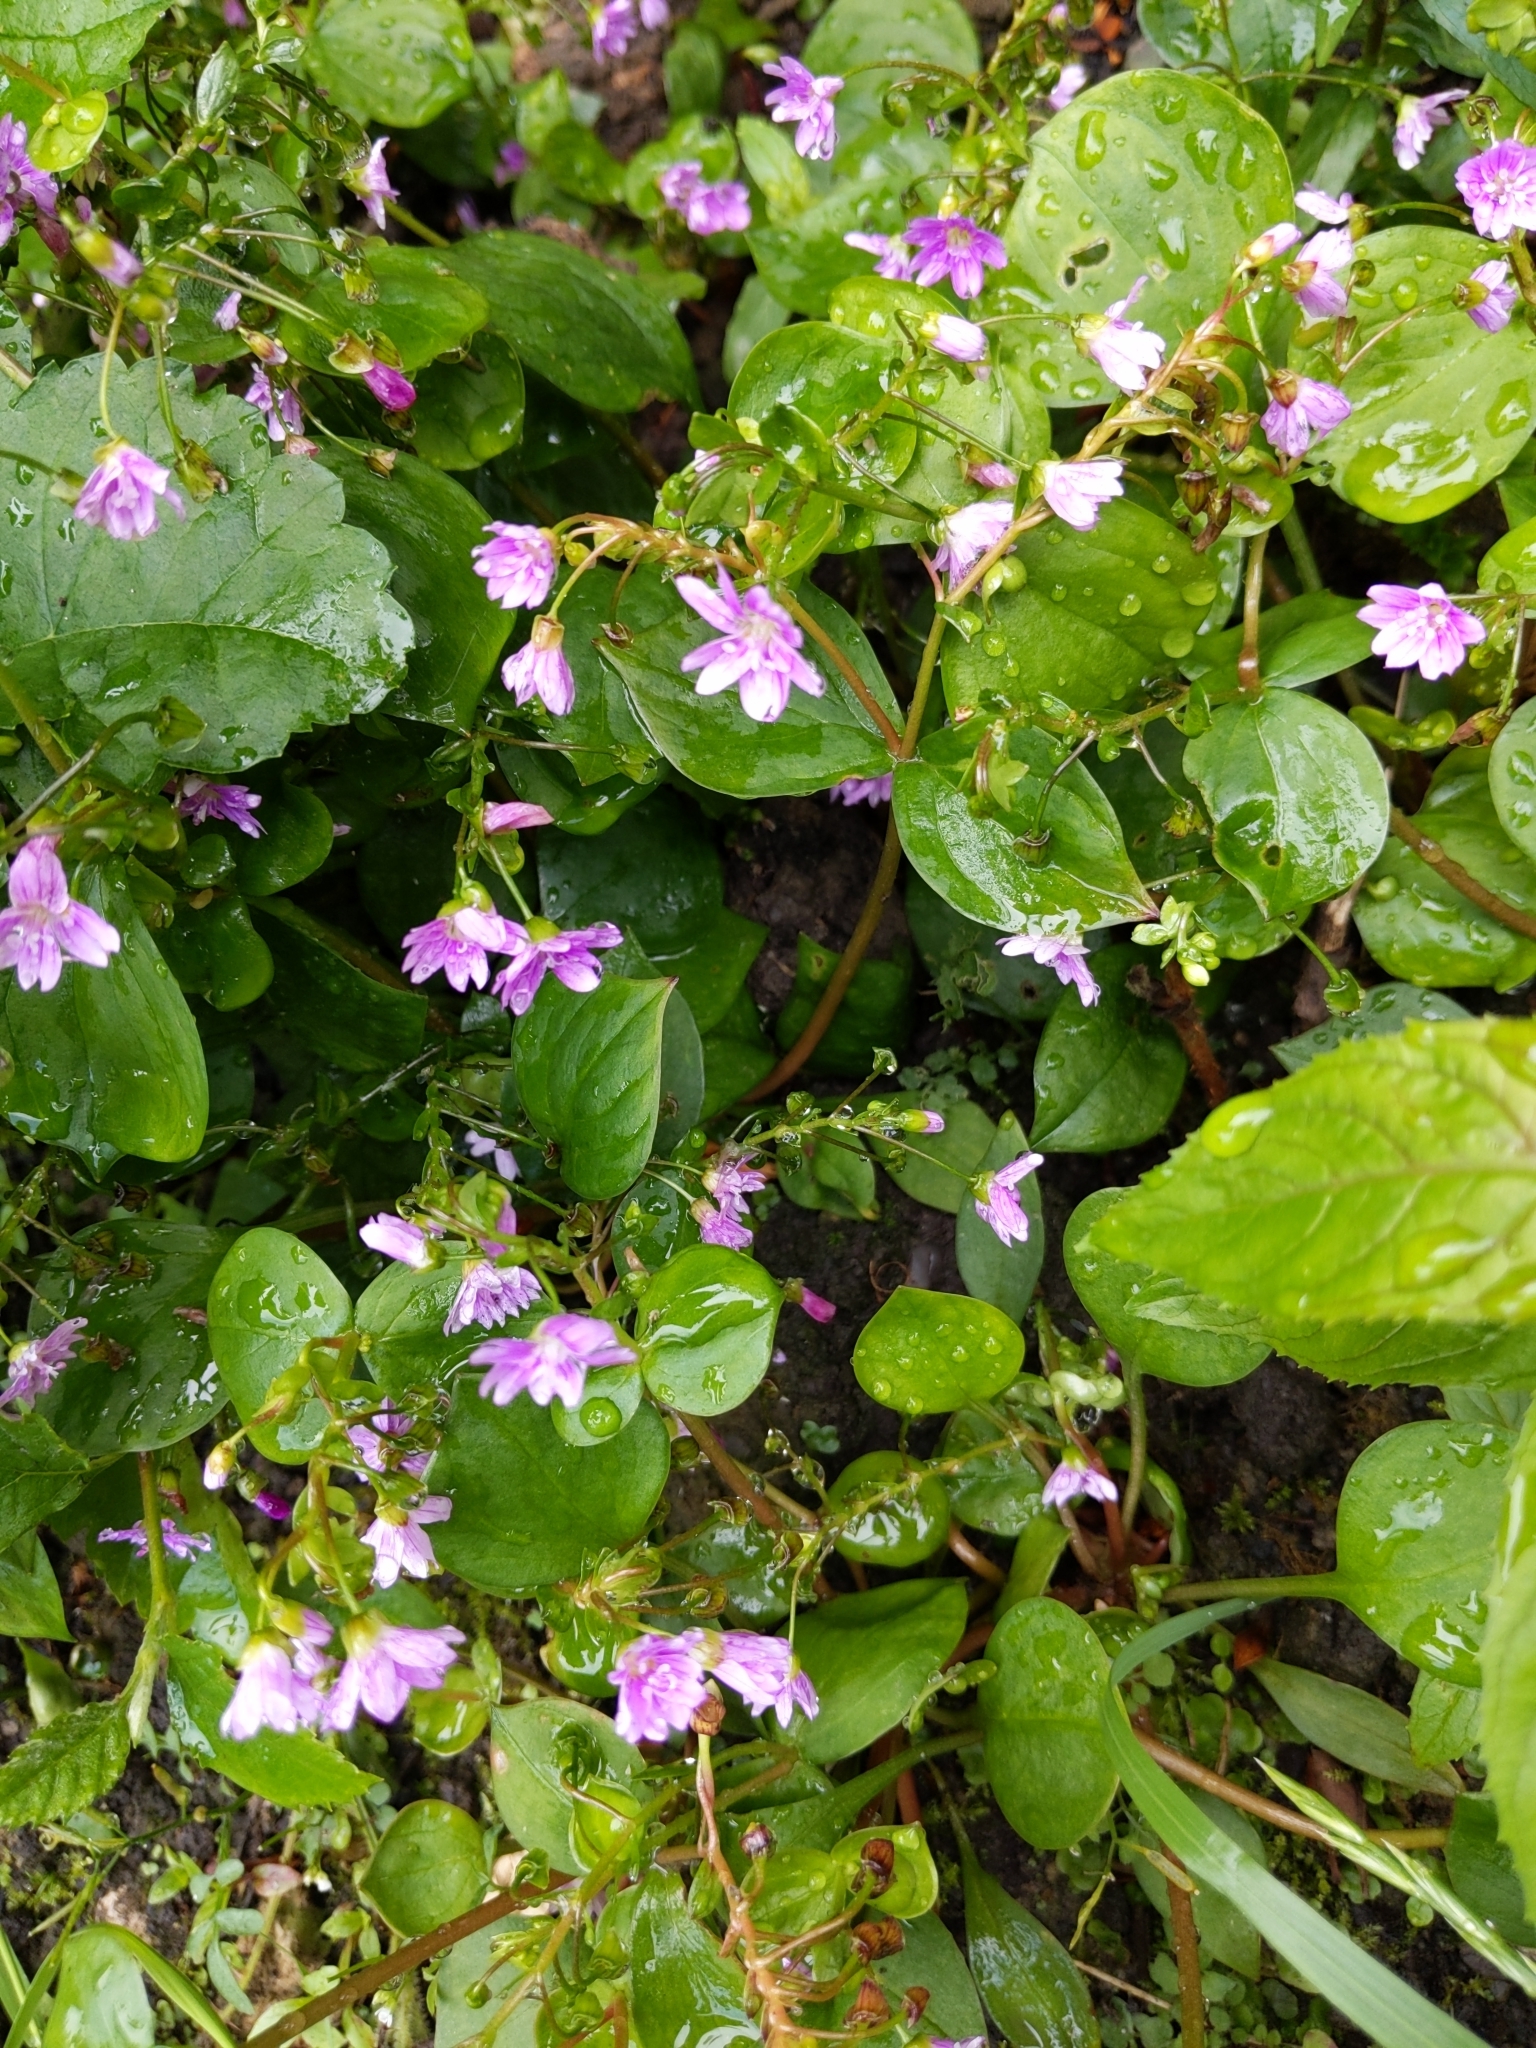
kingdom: Plantae
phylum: Tracheophyta
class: Magnoliopsida
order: Caryophyllales
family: Montiaceae
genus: Claytonia
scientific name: Claytonia sibirica
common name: Pink purslane
